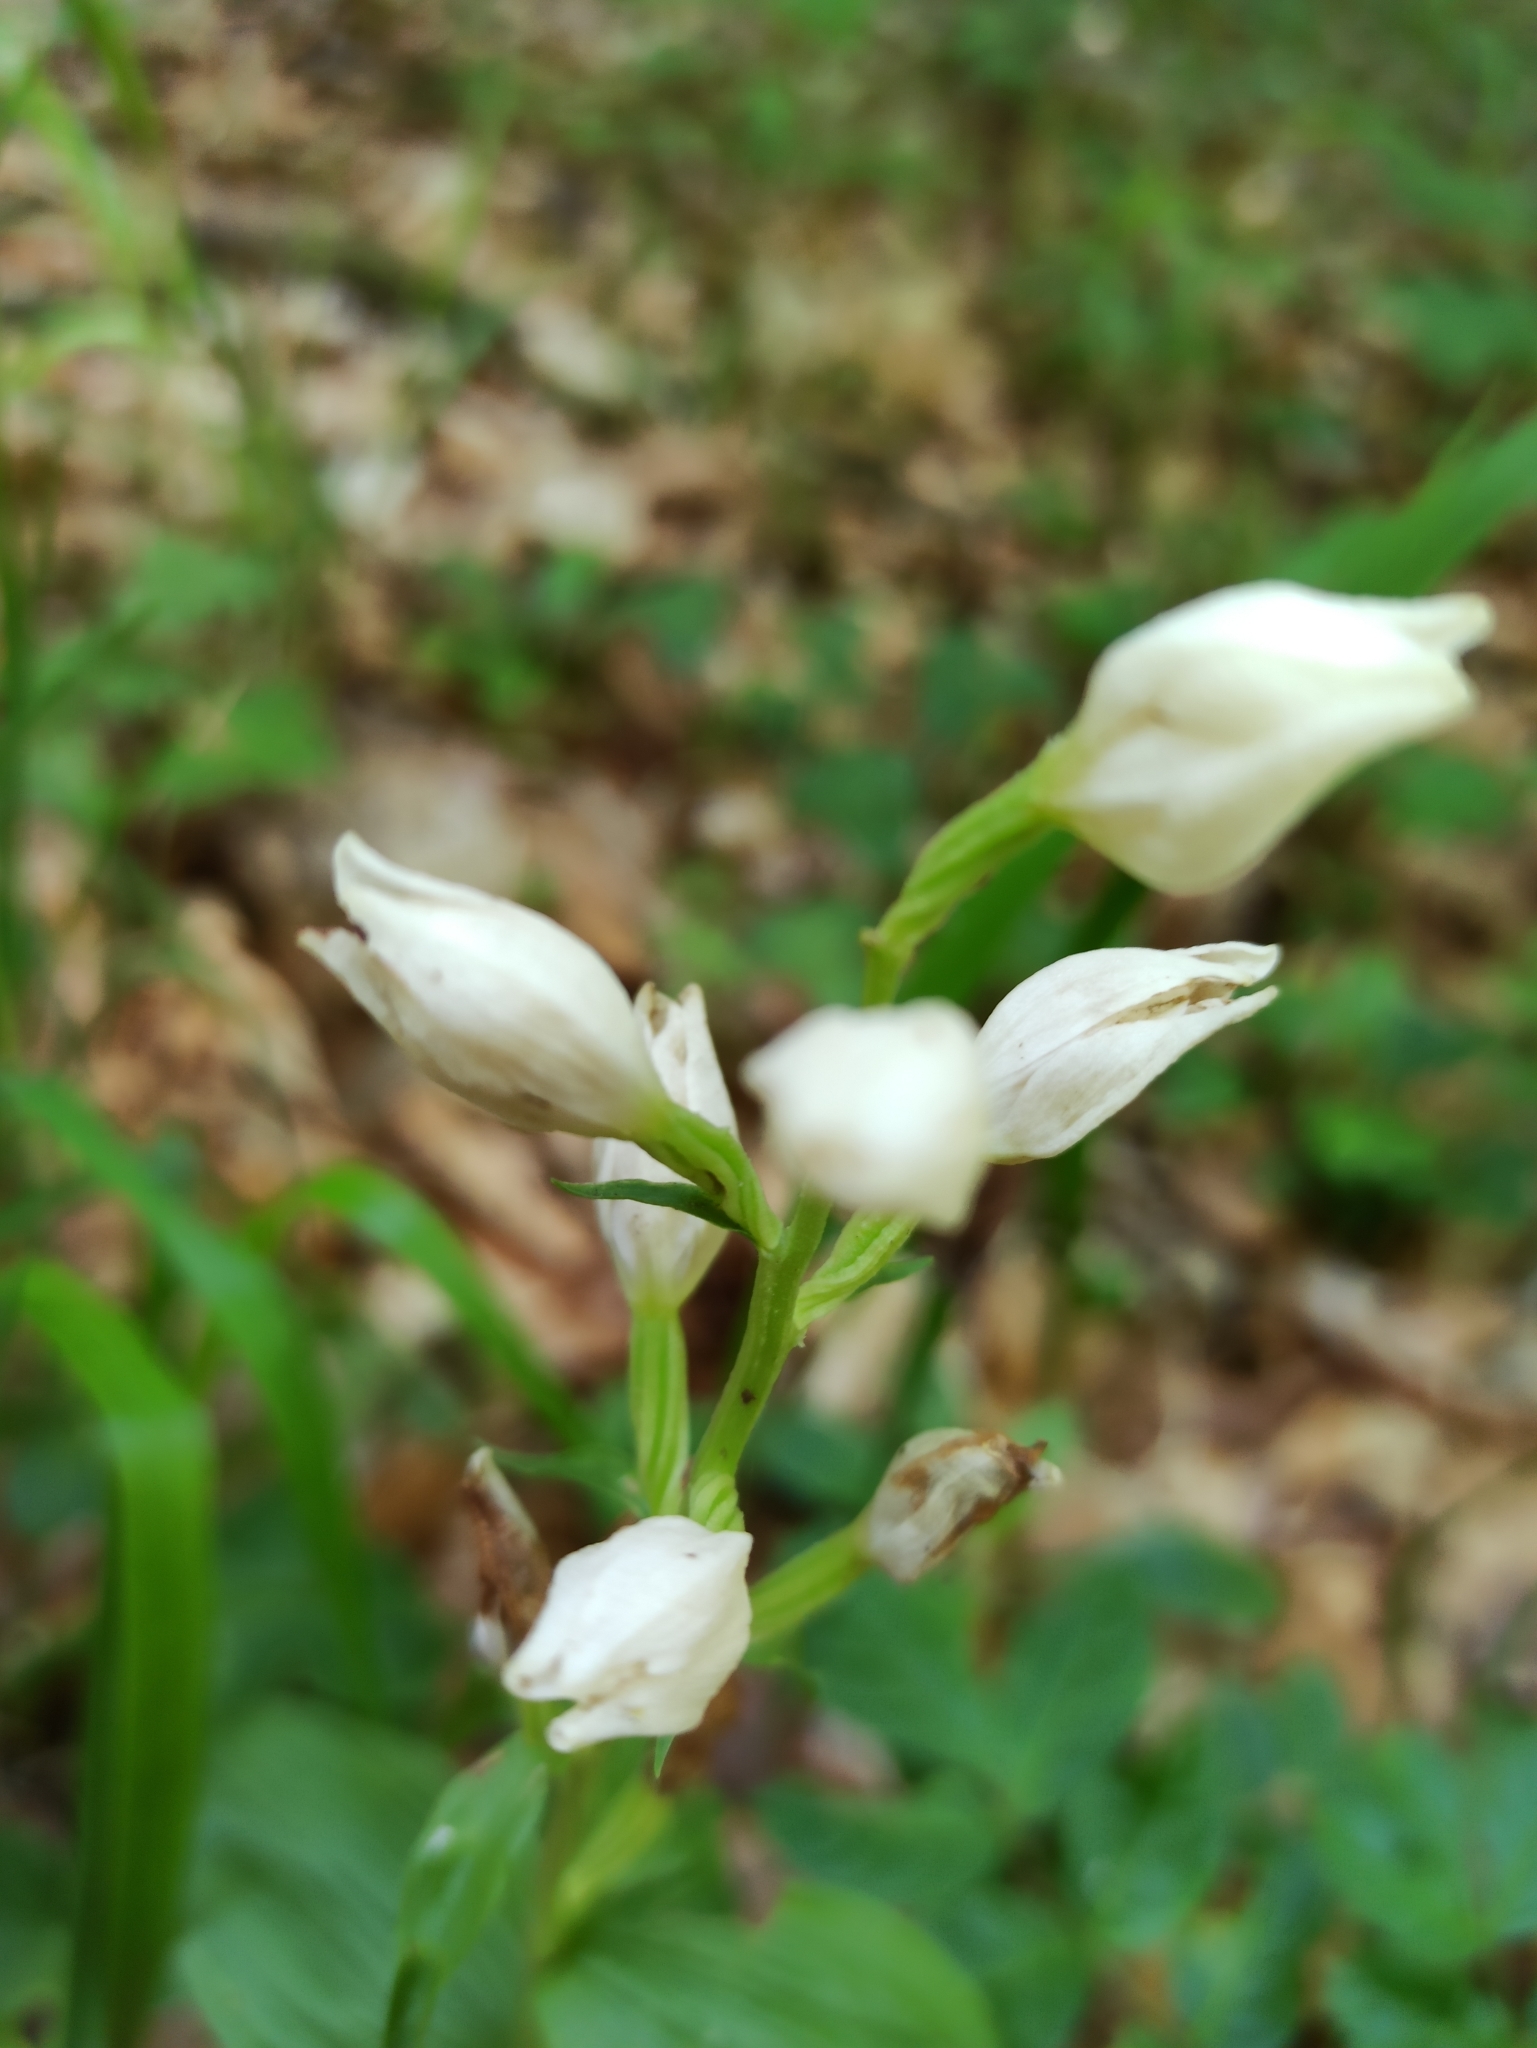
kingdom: Plantae
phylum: Tracheophyta
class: Liliopsida
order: Asparagales
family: Orchidaceae
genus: Cephalanthera
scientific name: Cephalanthera damasonium
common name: White helleborine
